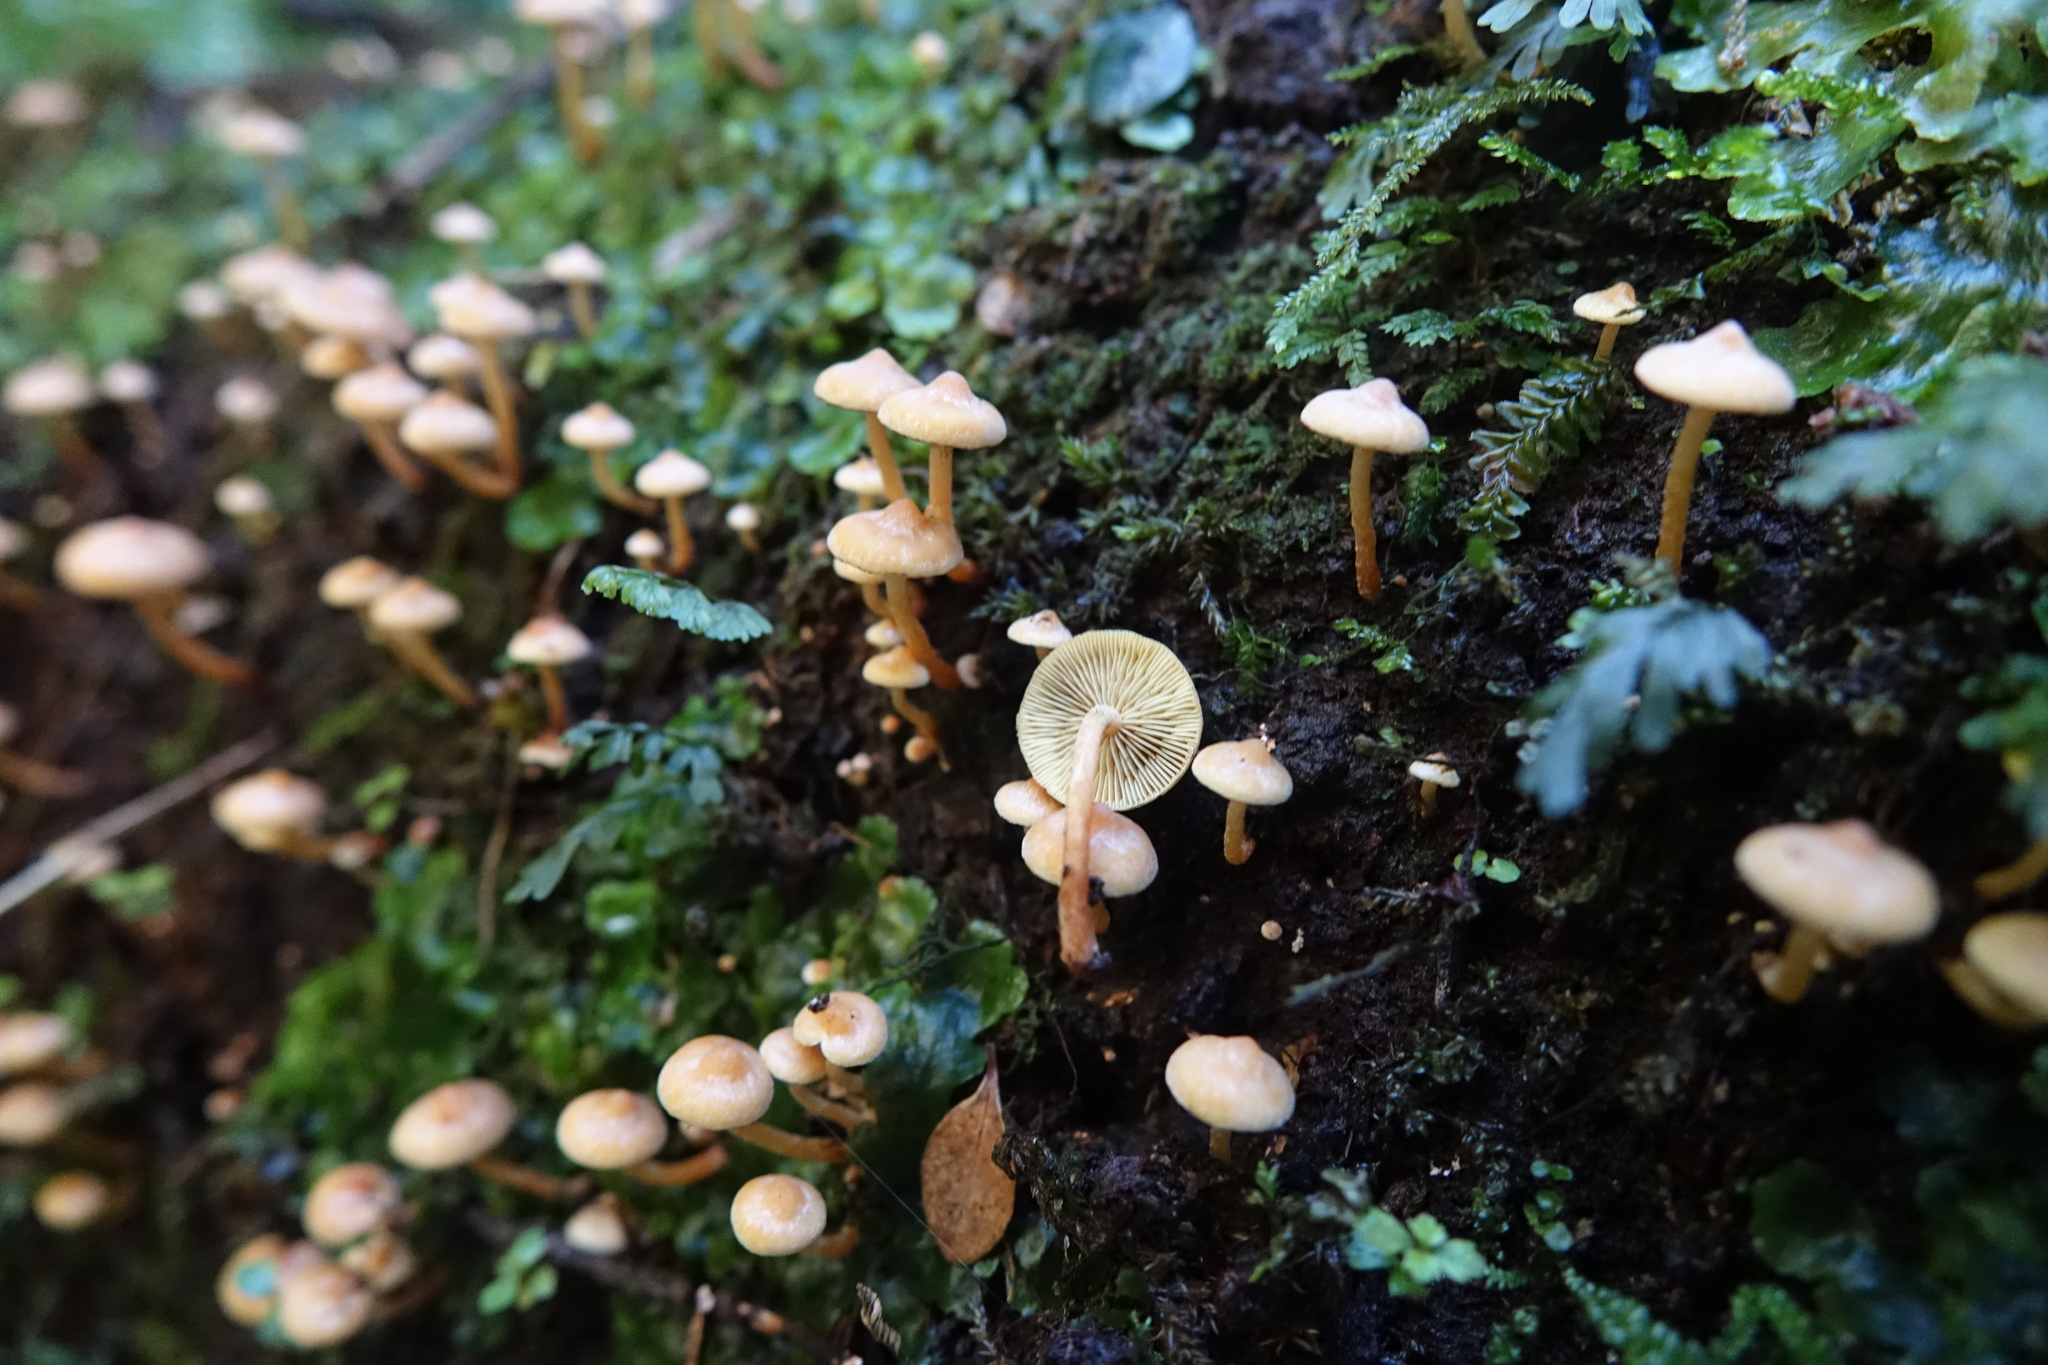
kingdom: Fungi
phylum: Basidiomycota
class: Agaricomycetes
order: Agaricales
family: Strophariaceae
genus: Hypholoma
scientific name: Hypholoma acutum
